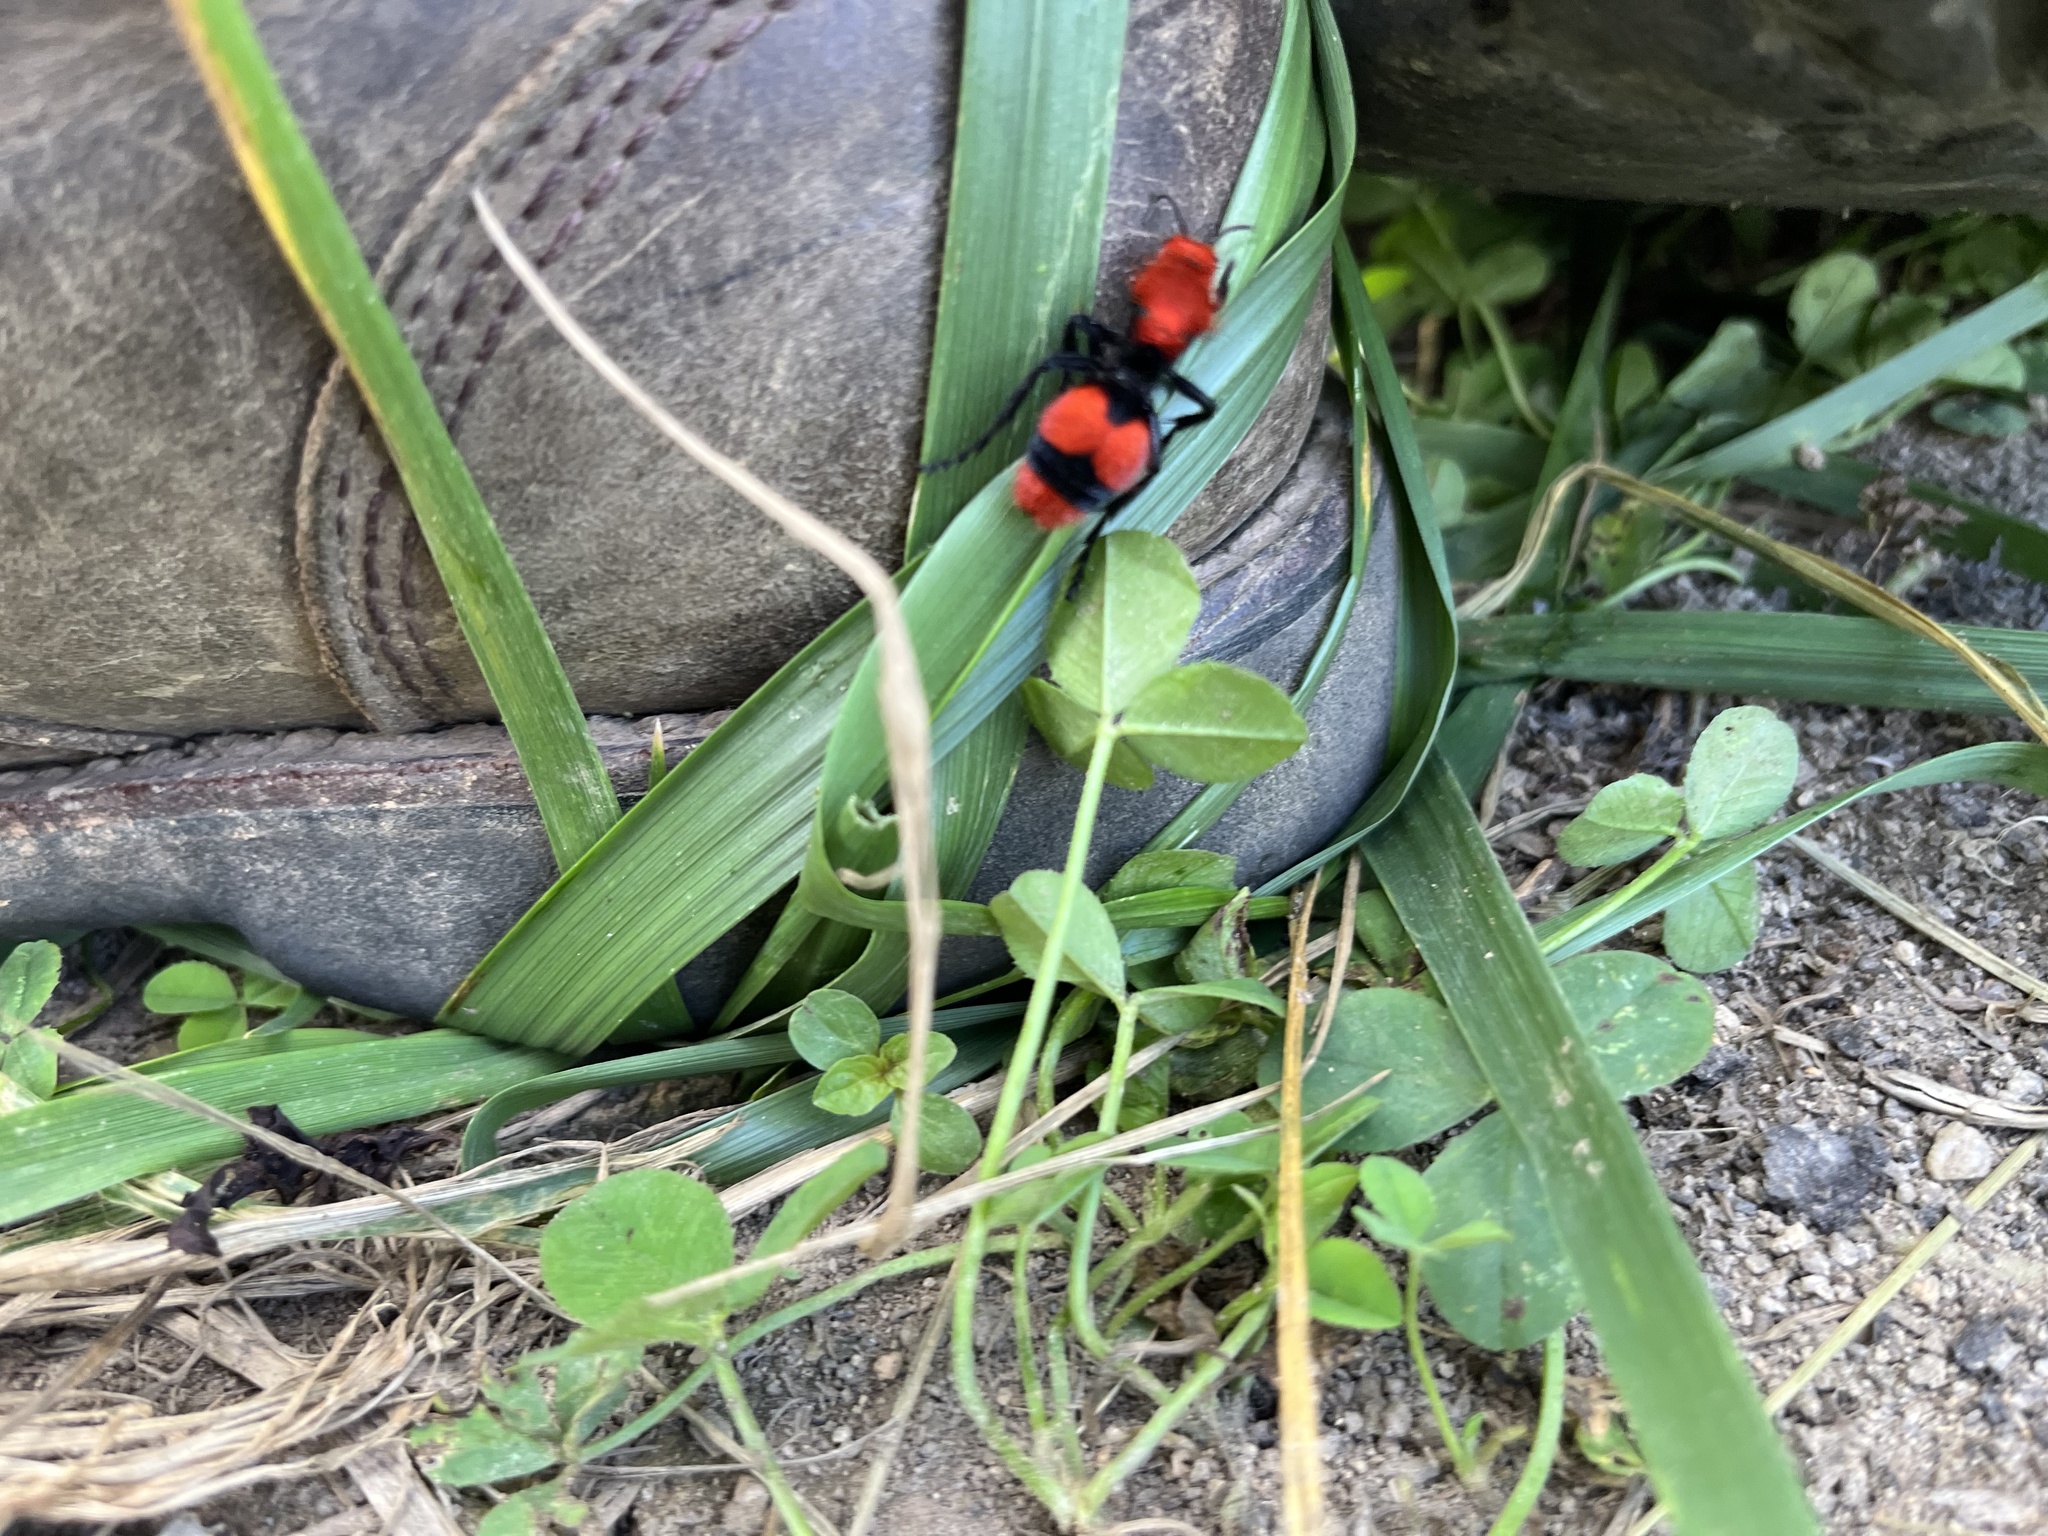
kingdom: Animalia
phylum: Arthropoda
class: Insecta
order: Hymenoptera
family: Mutillidae
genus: Dasymutilla
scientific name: Dasymutilla occidentalis
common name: Common eastern velvet ant
